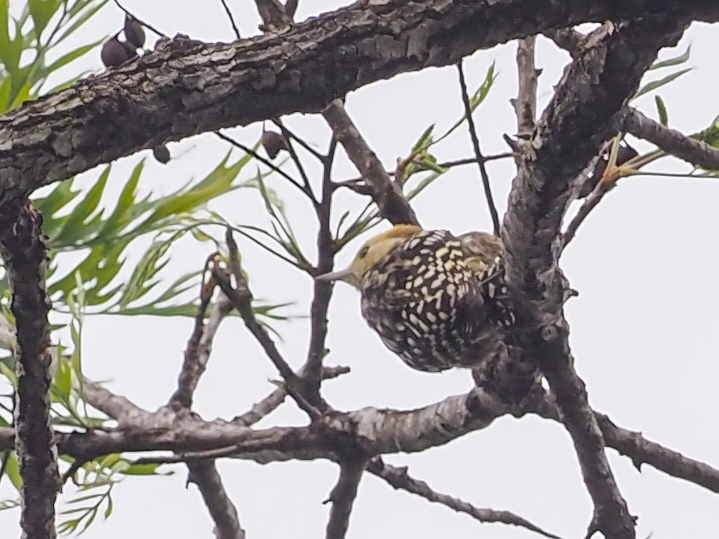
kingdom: Animalia
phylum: Chordata
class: Aves
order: Piciformes
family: Picidae
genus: Leiopicus
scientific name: Leiopicus mahrattensis
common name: Yellow-crowned woodpecker
